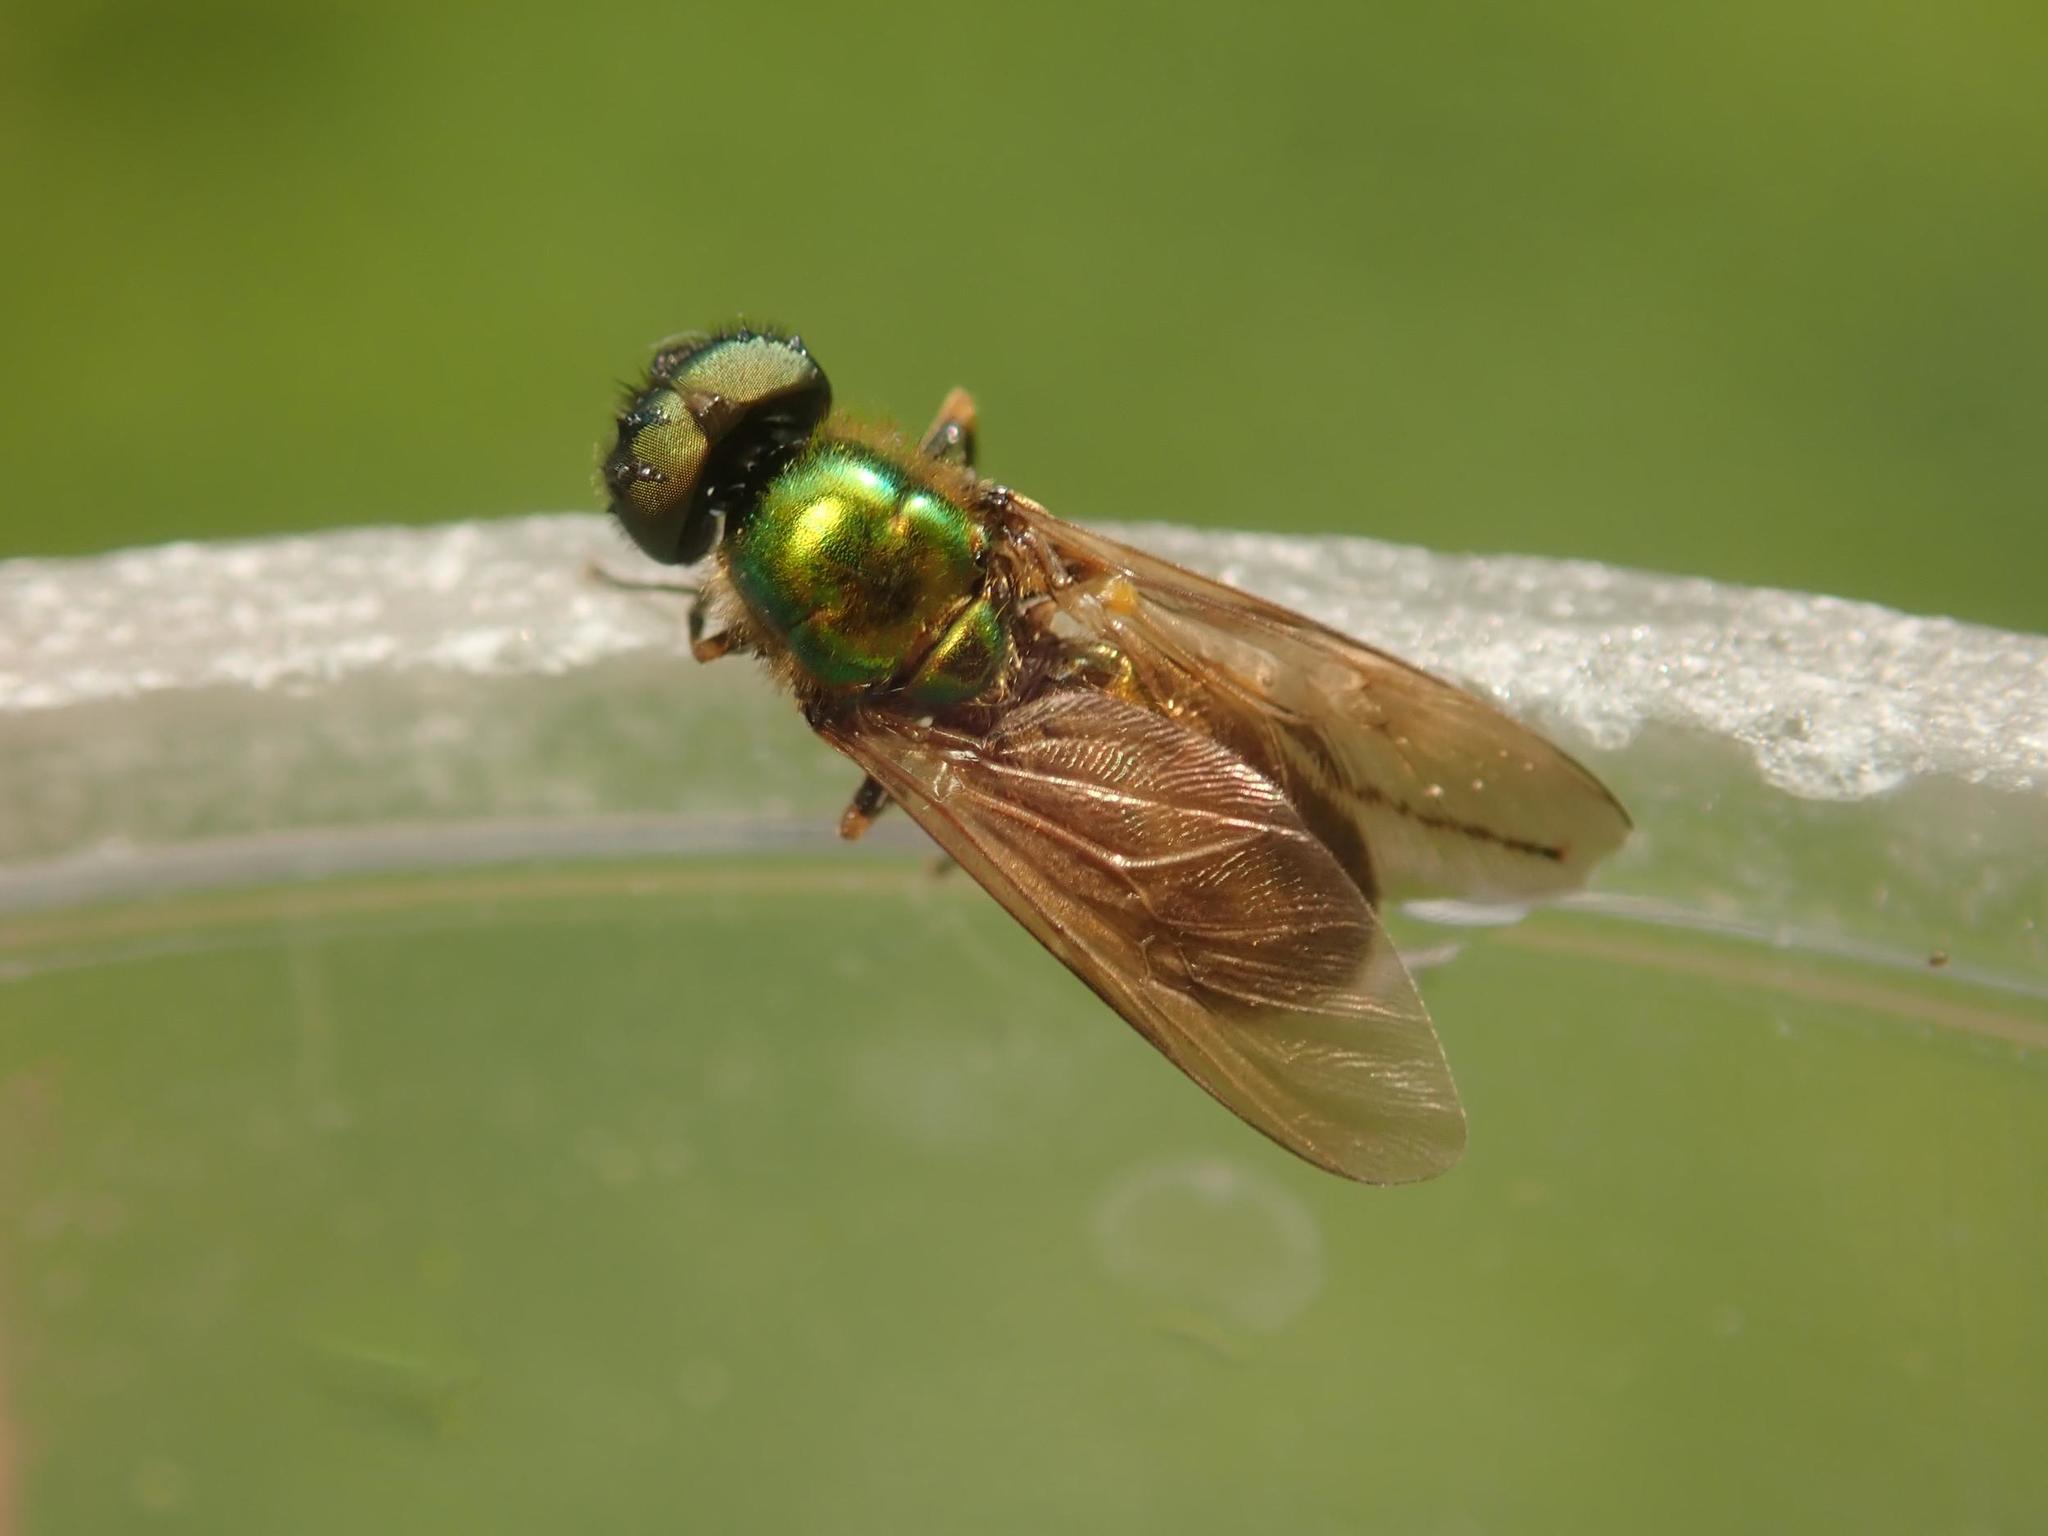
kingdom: Animalia
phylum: Arthropoda
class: Insecta
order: Diptera
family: Stratiomyidae
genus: Chloromyia
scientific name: Chloromyia formosa
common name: Soldier fly
